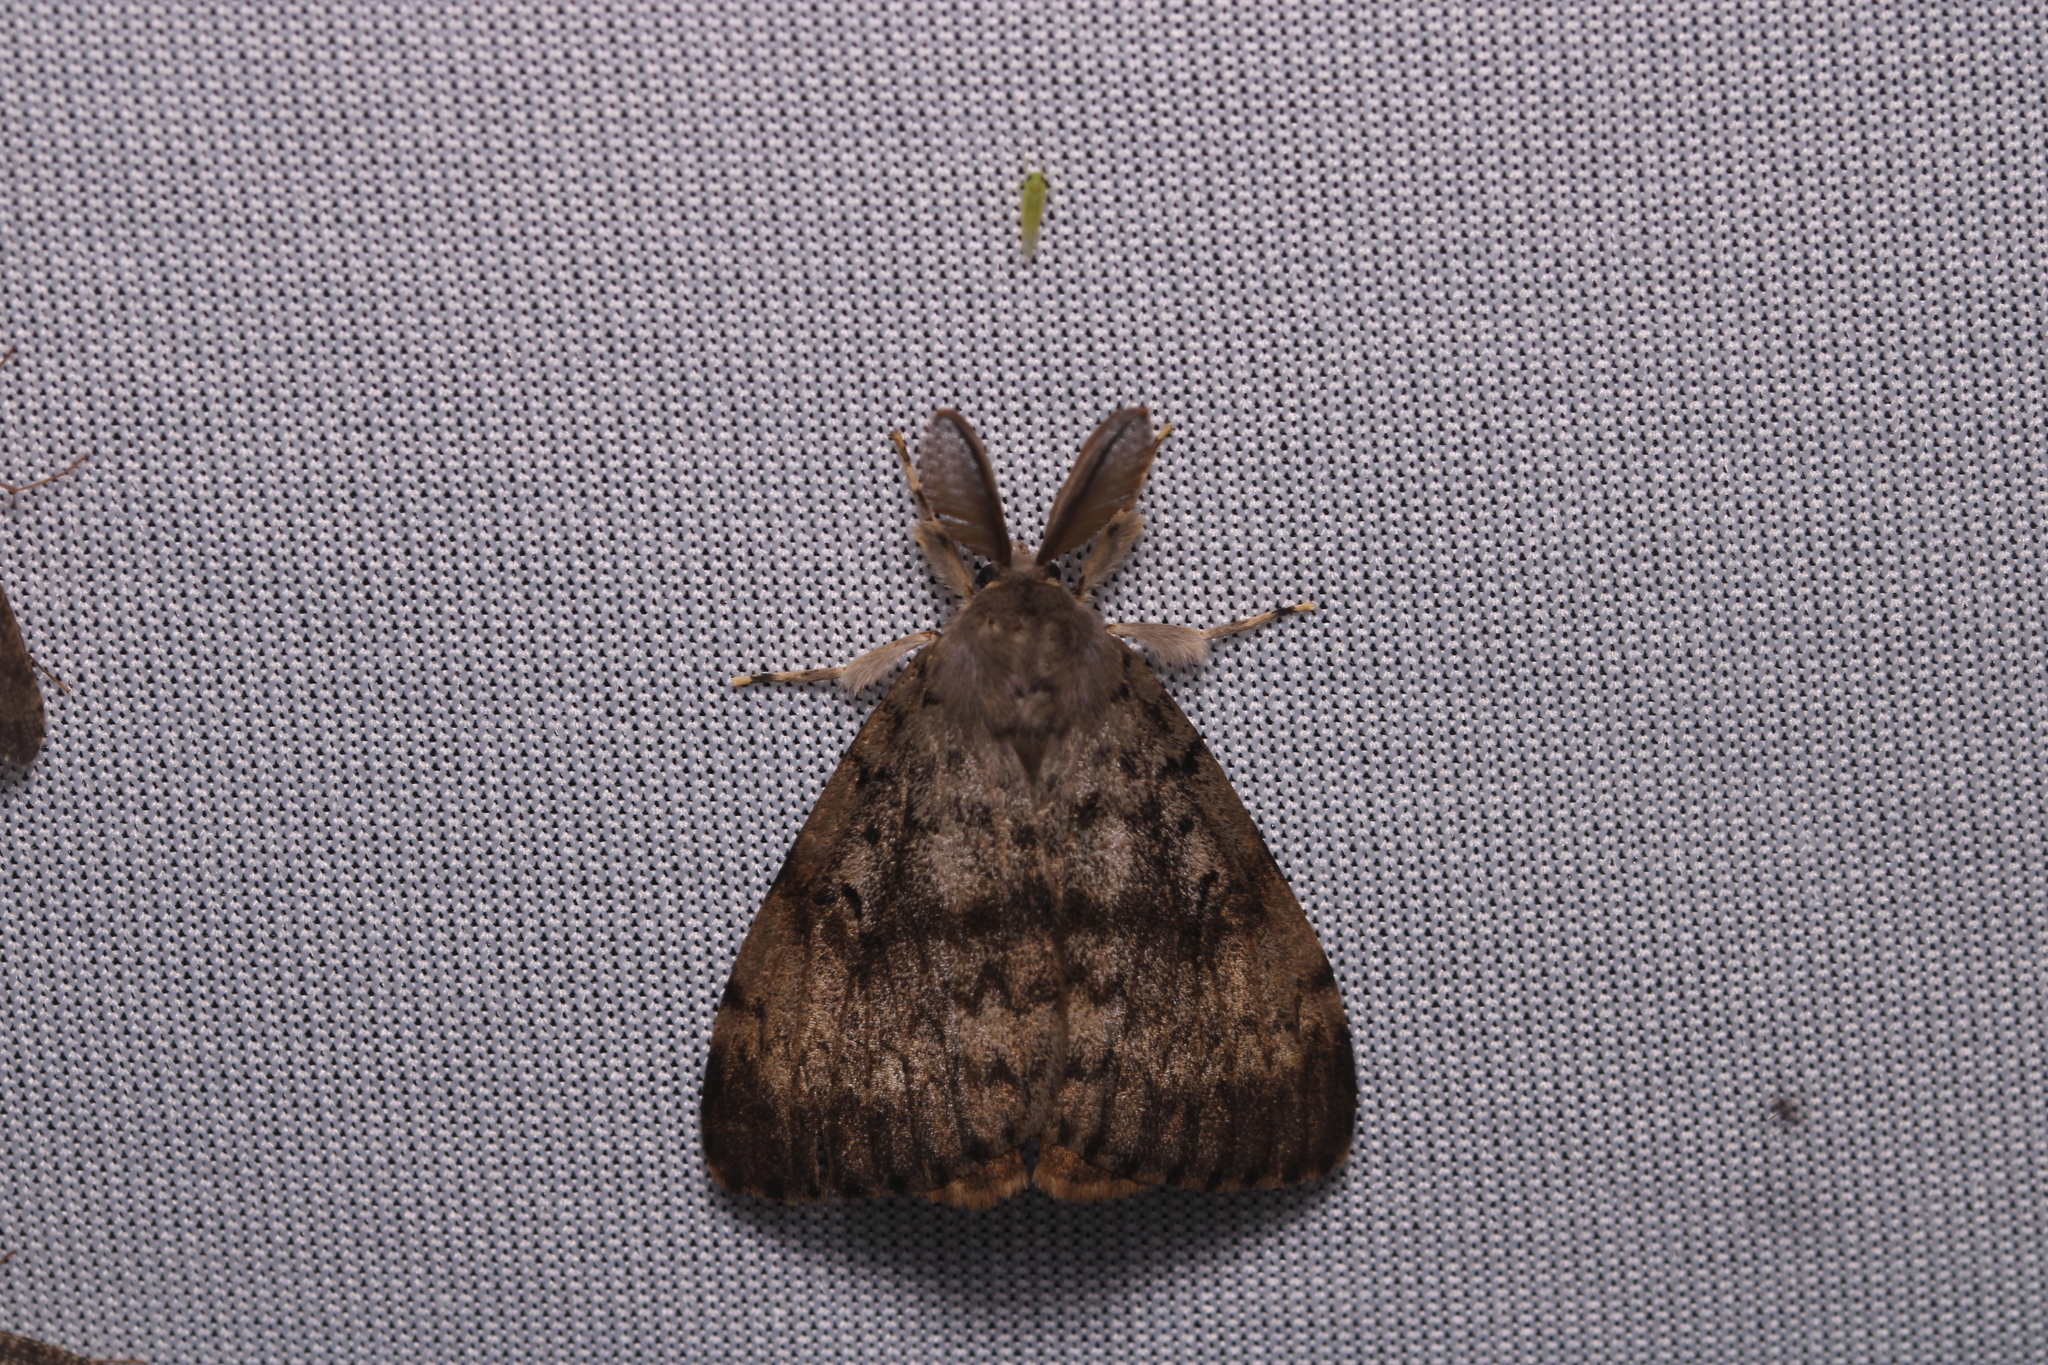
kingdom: Animalia
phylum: Arthropoda
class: Insecta
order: Lepidoptera
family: Erebidae
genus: Lymantria
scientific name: Lymantria dispar
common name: Gypsy moth
